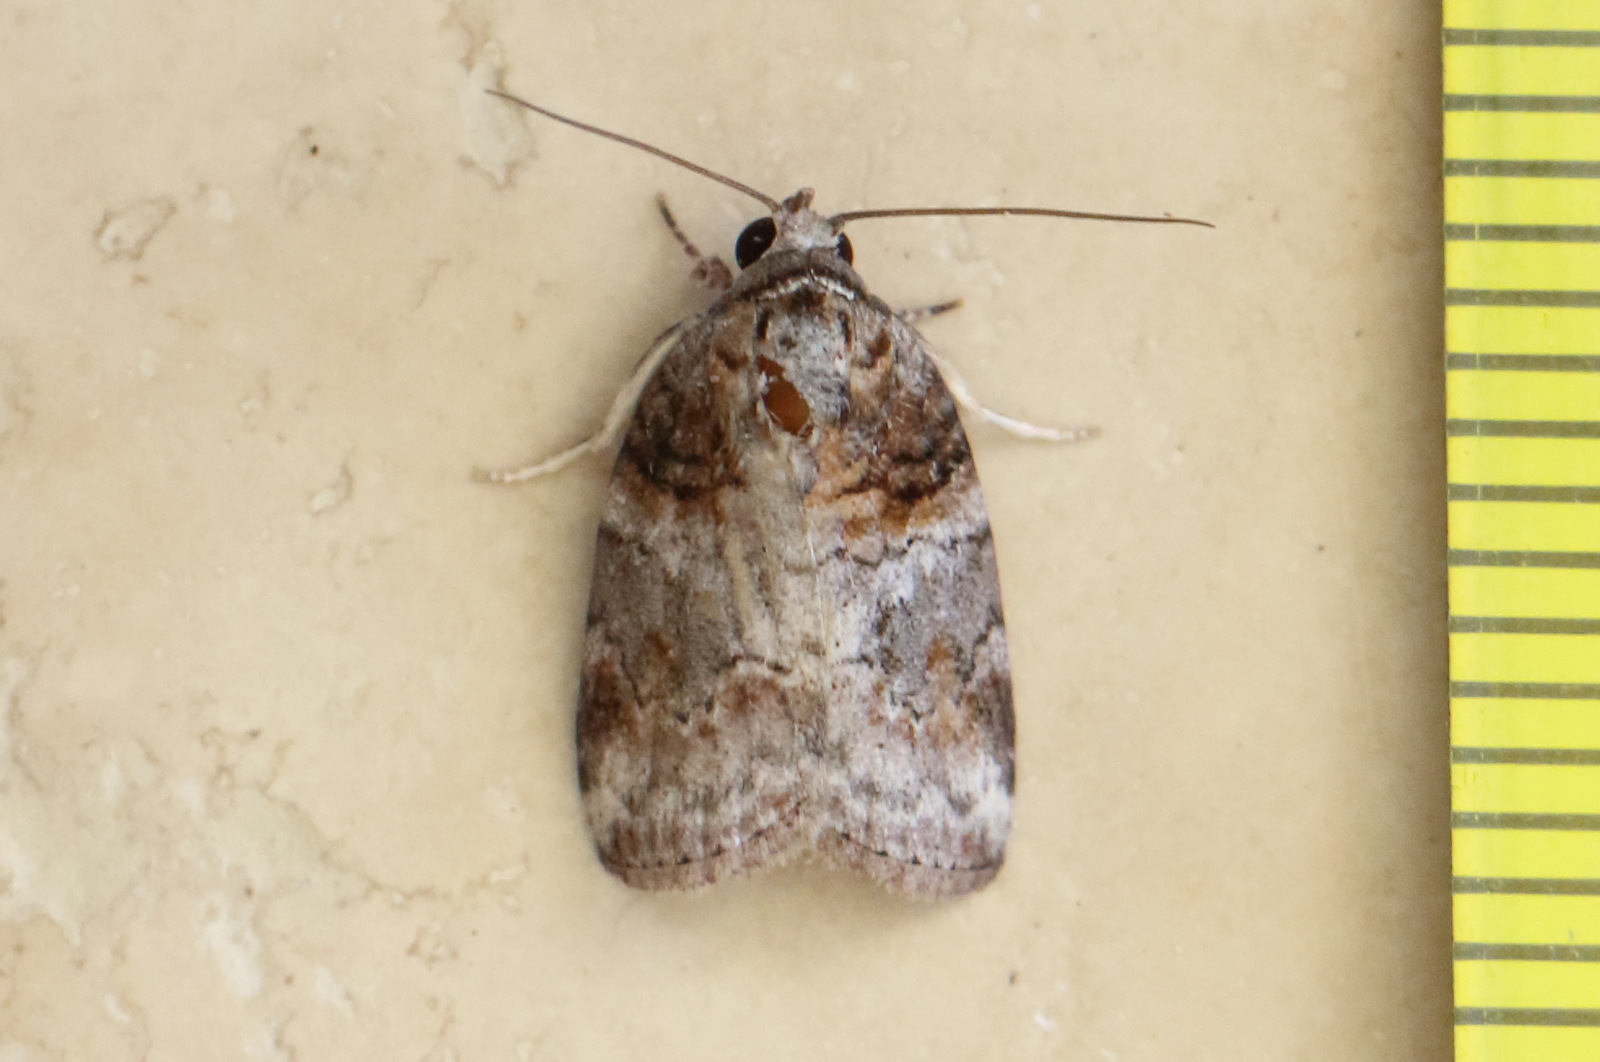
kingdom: Animalia
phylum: Arthropoda
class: Insecta
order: Lepidoptera
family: Nolidae
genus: Garella
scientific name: Garella vallata
